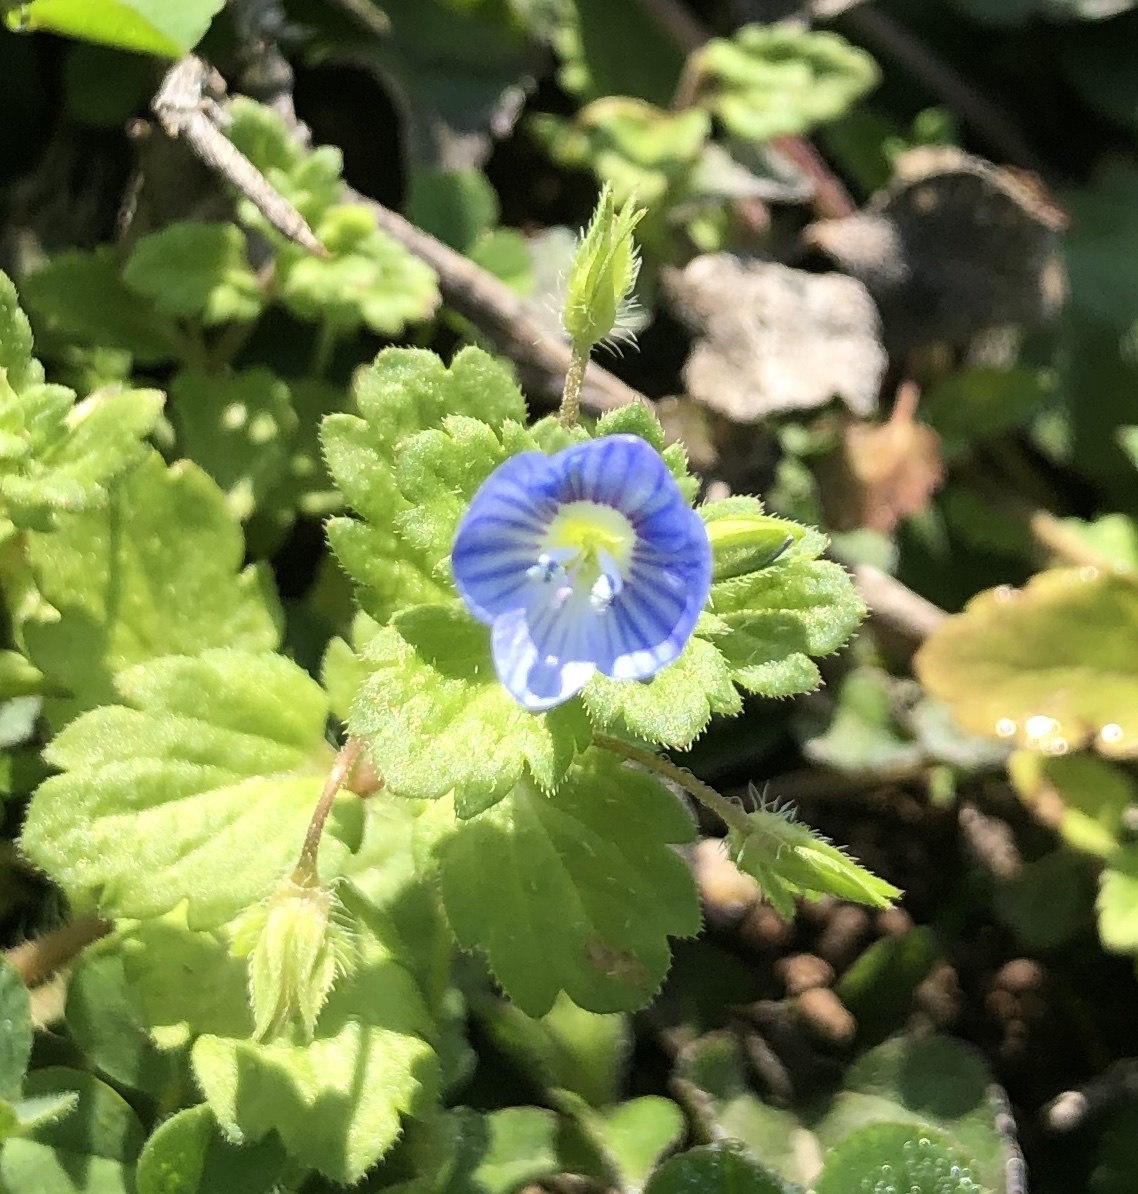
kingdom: Plantae
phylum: Tracheophyta
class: Magnoliopsida
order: Lamiales
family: Plantaginaceae
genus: Veronica
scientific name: Veronica persica
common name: Common field-speedwell
